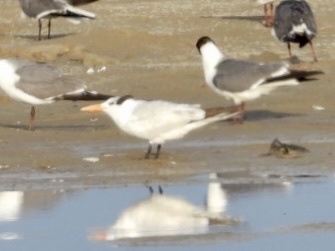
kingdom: Animalia
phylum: Chordata
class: Aves
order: Charadriiformes
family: Laridae
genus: Thalasseus
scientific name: Thalasseus maximus
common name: Royal tern
